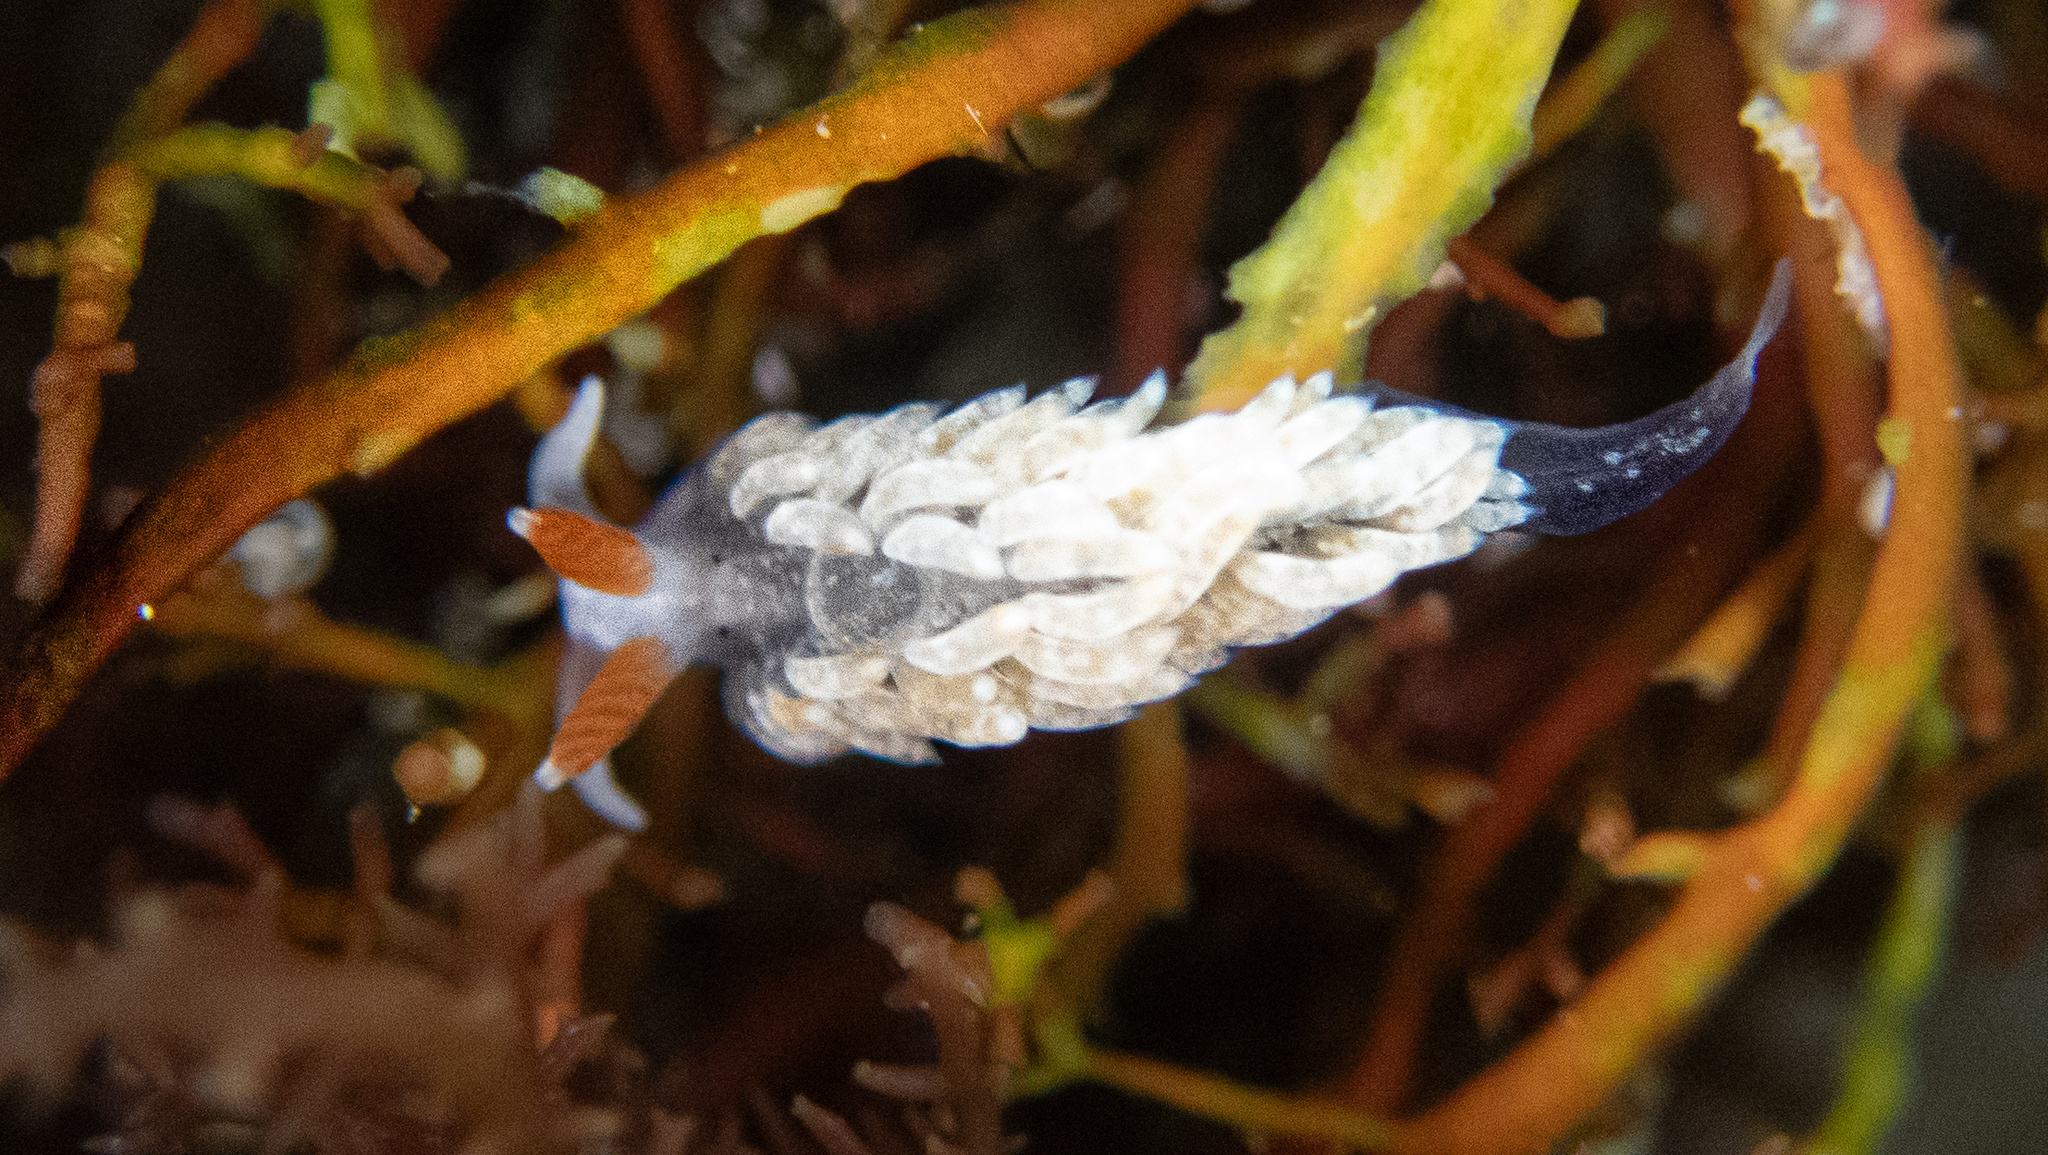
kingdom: Animalia
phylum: Mollusca
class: Gastropoda
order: Nudibranchia
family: Aeolidiidae
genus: Anteaeolidiella
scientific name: Anteaeolidiella oliviae
